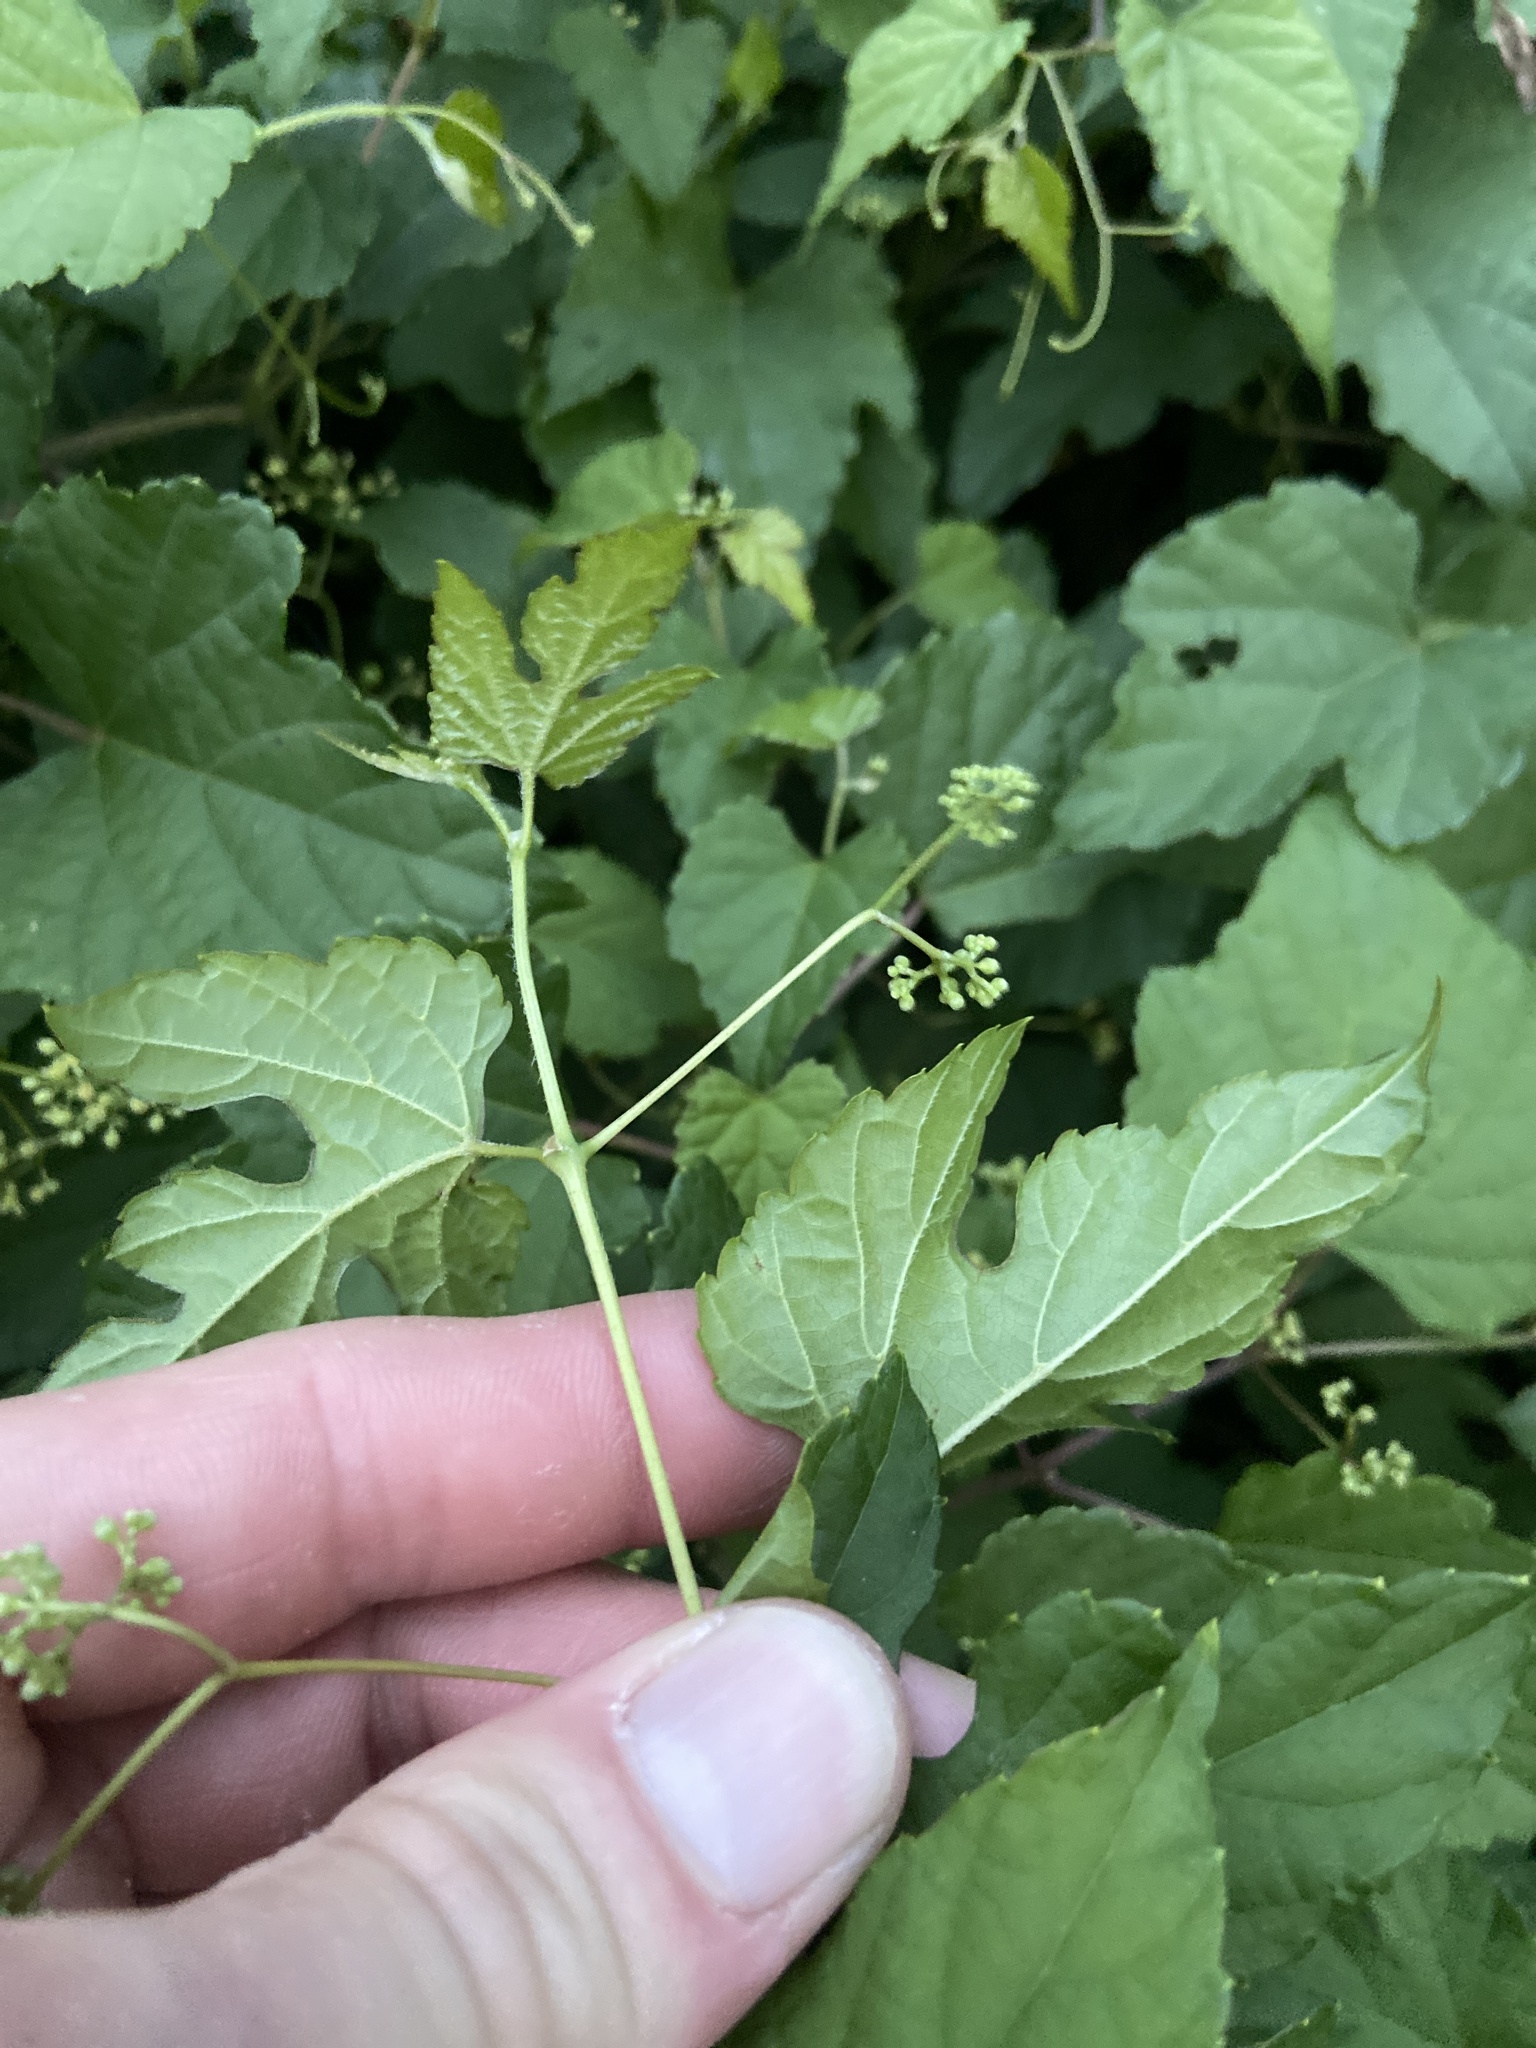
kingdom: Plantae
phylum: Tracheophyta
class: Magnoliopsida
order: Vitales
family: Vitaceae
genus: Ampelopsis
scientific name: Ampelopsis glandulosa
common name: Amur peppervine
